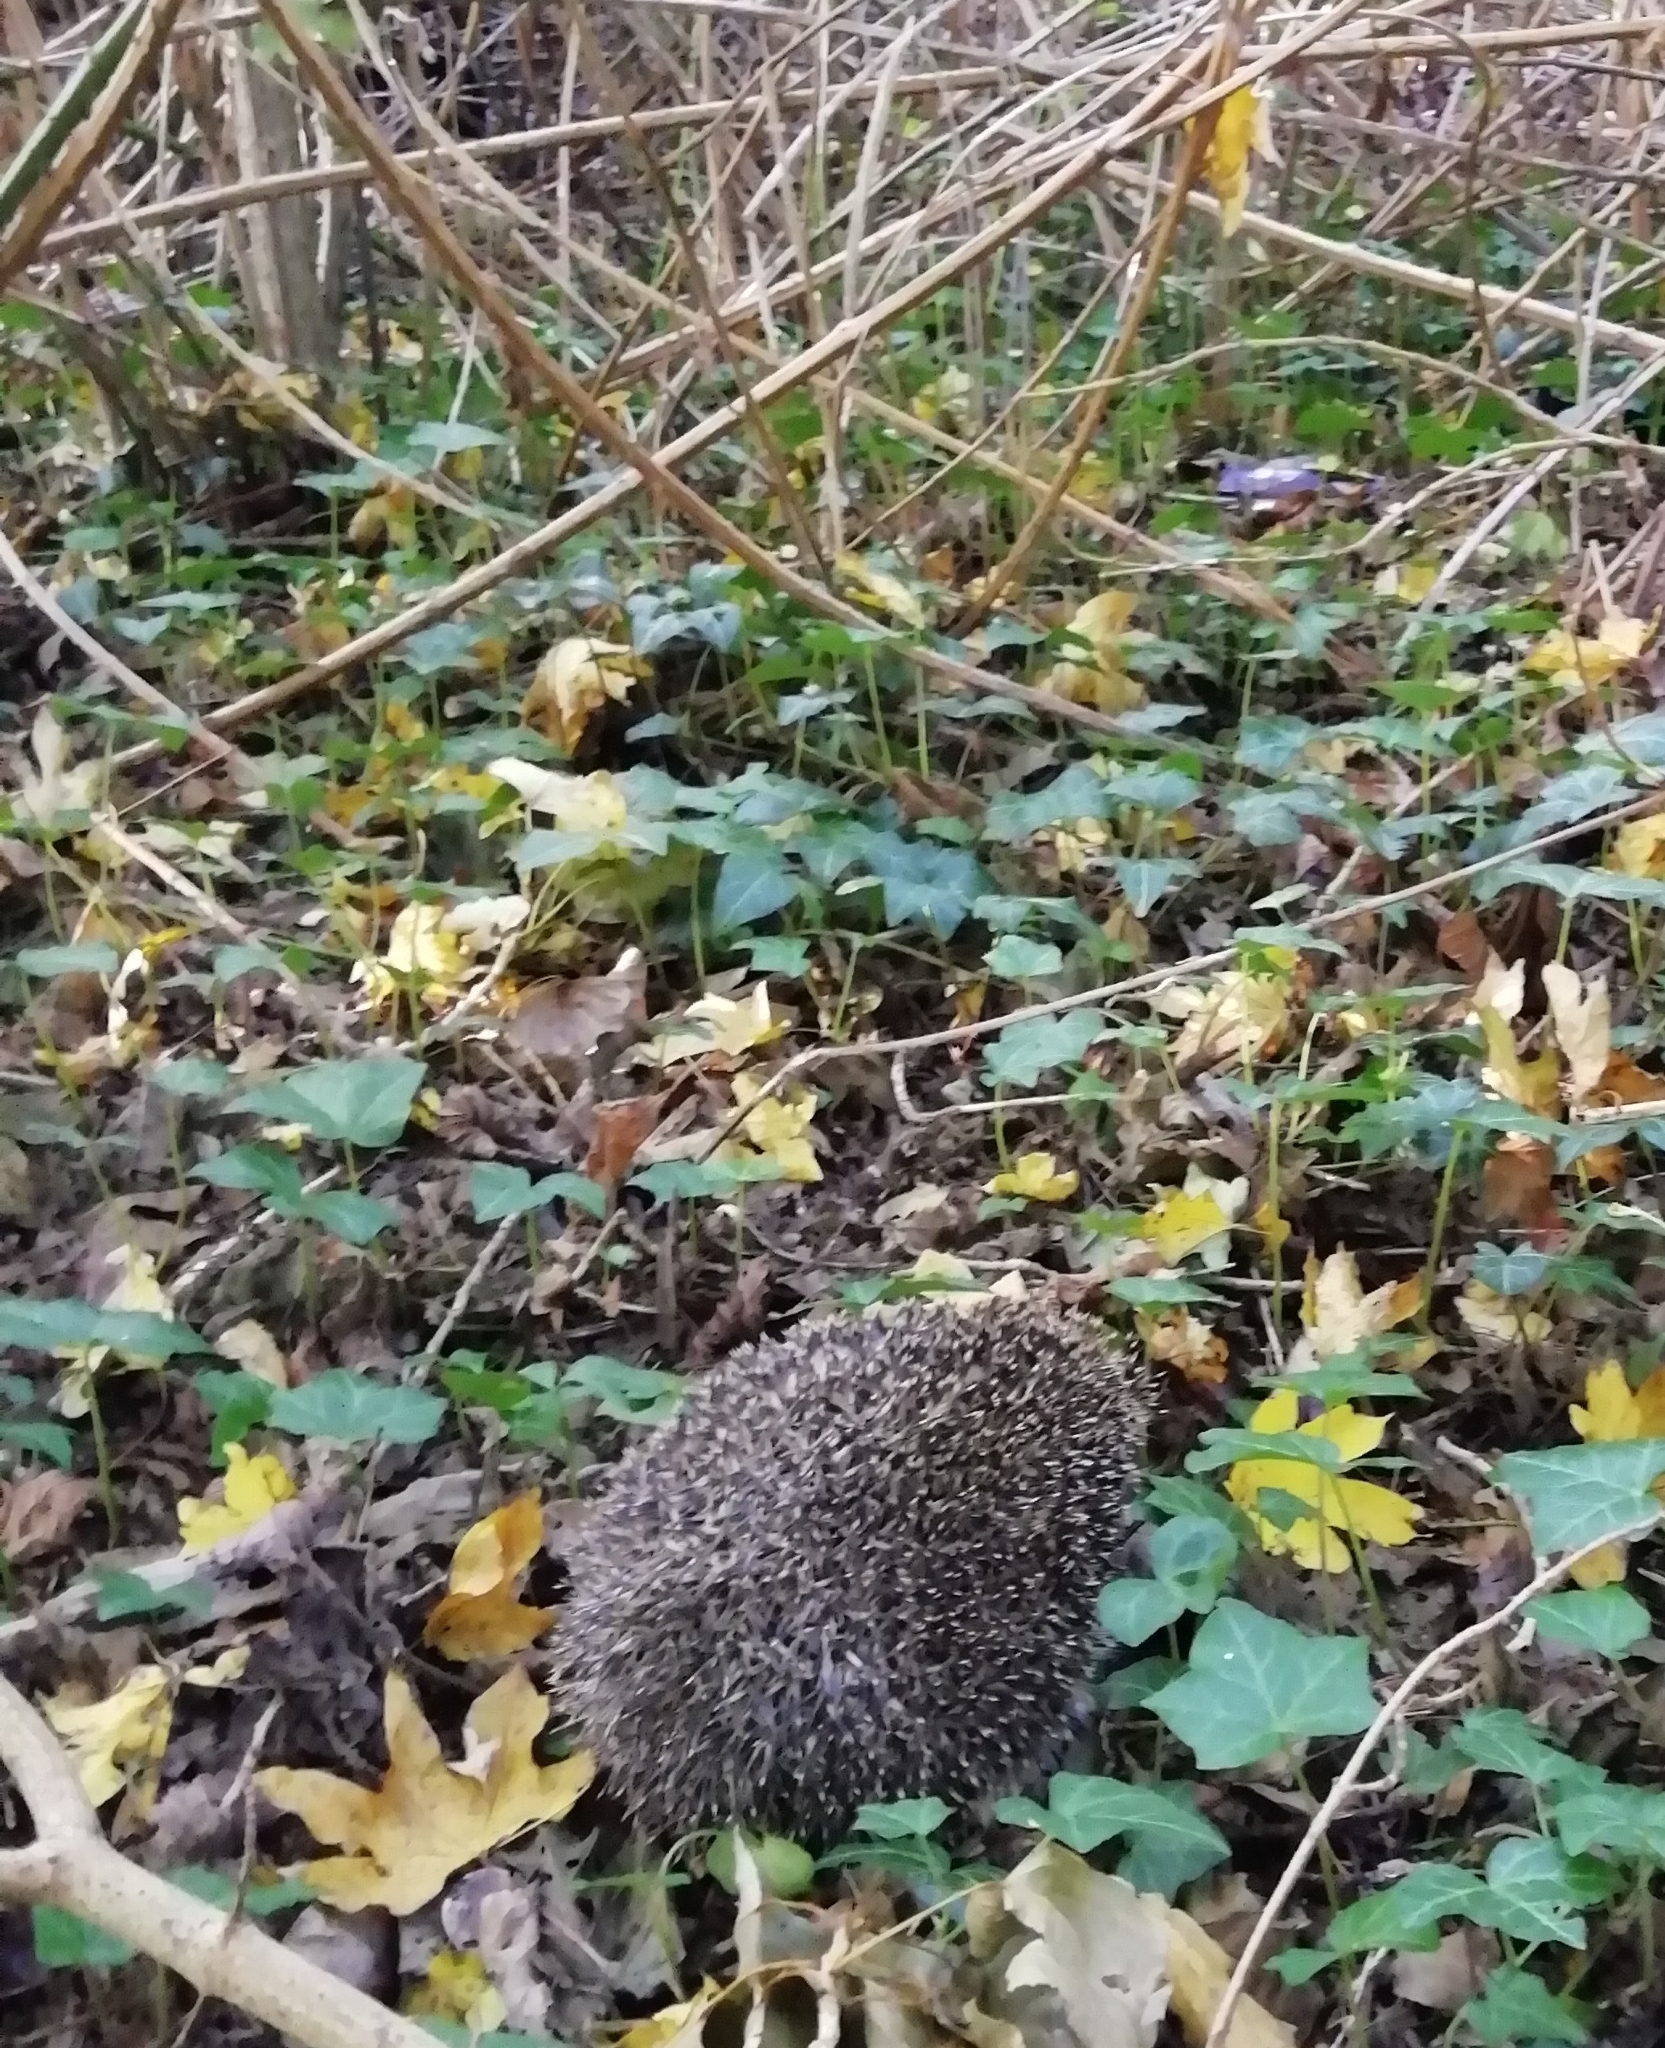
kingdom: Animalia
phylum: Chordata
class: Mammalia
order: Erinaceomorpha
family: Erinaceidae
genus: Erinaceus
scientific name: Erinaceus europaeus
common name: West european hedgehog
